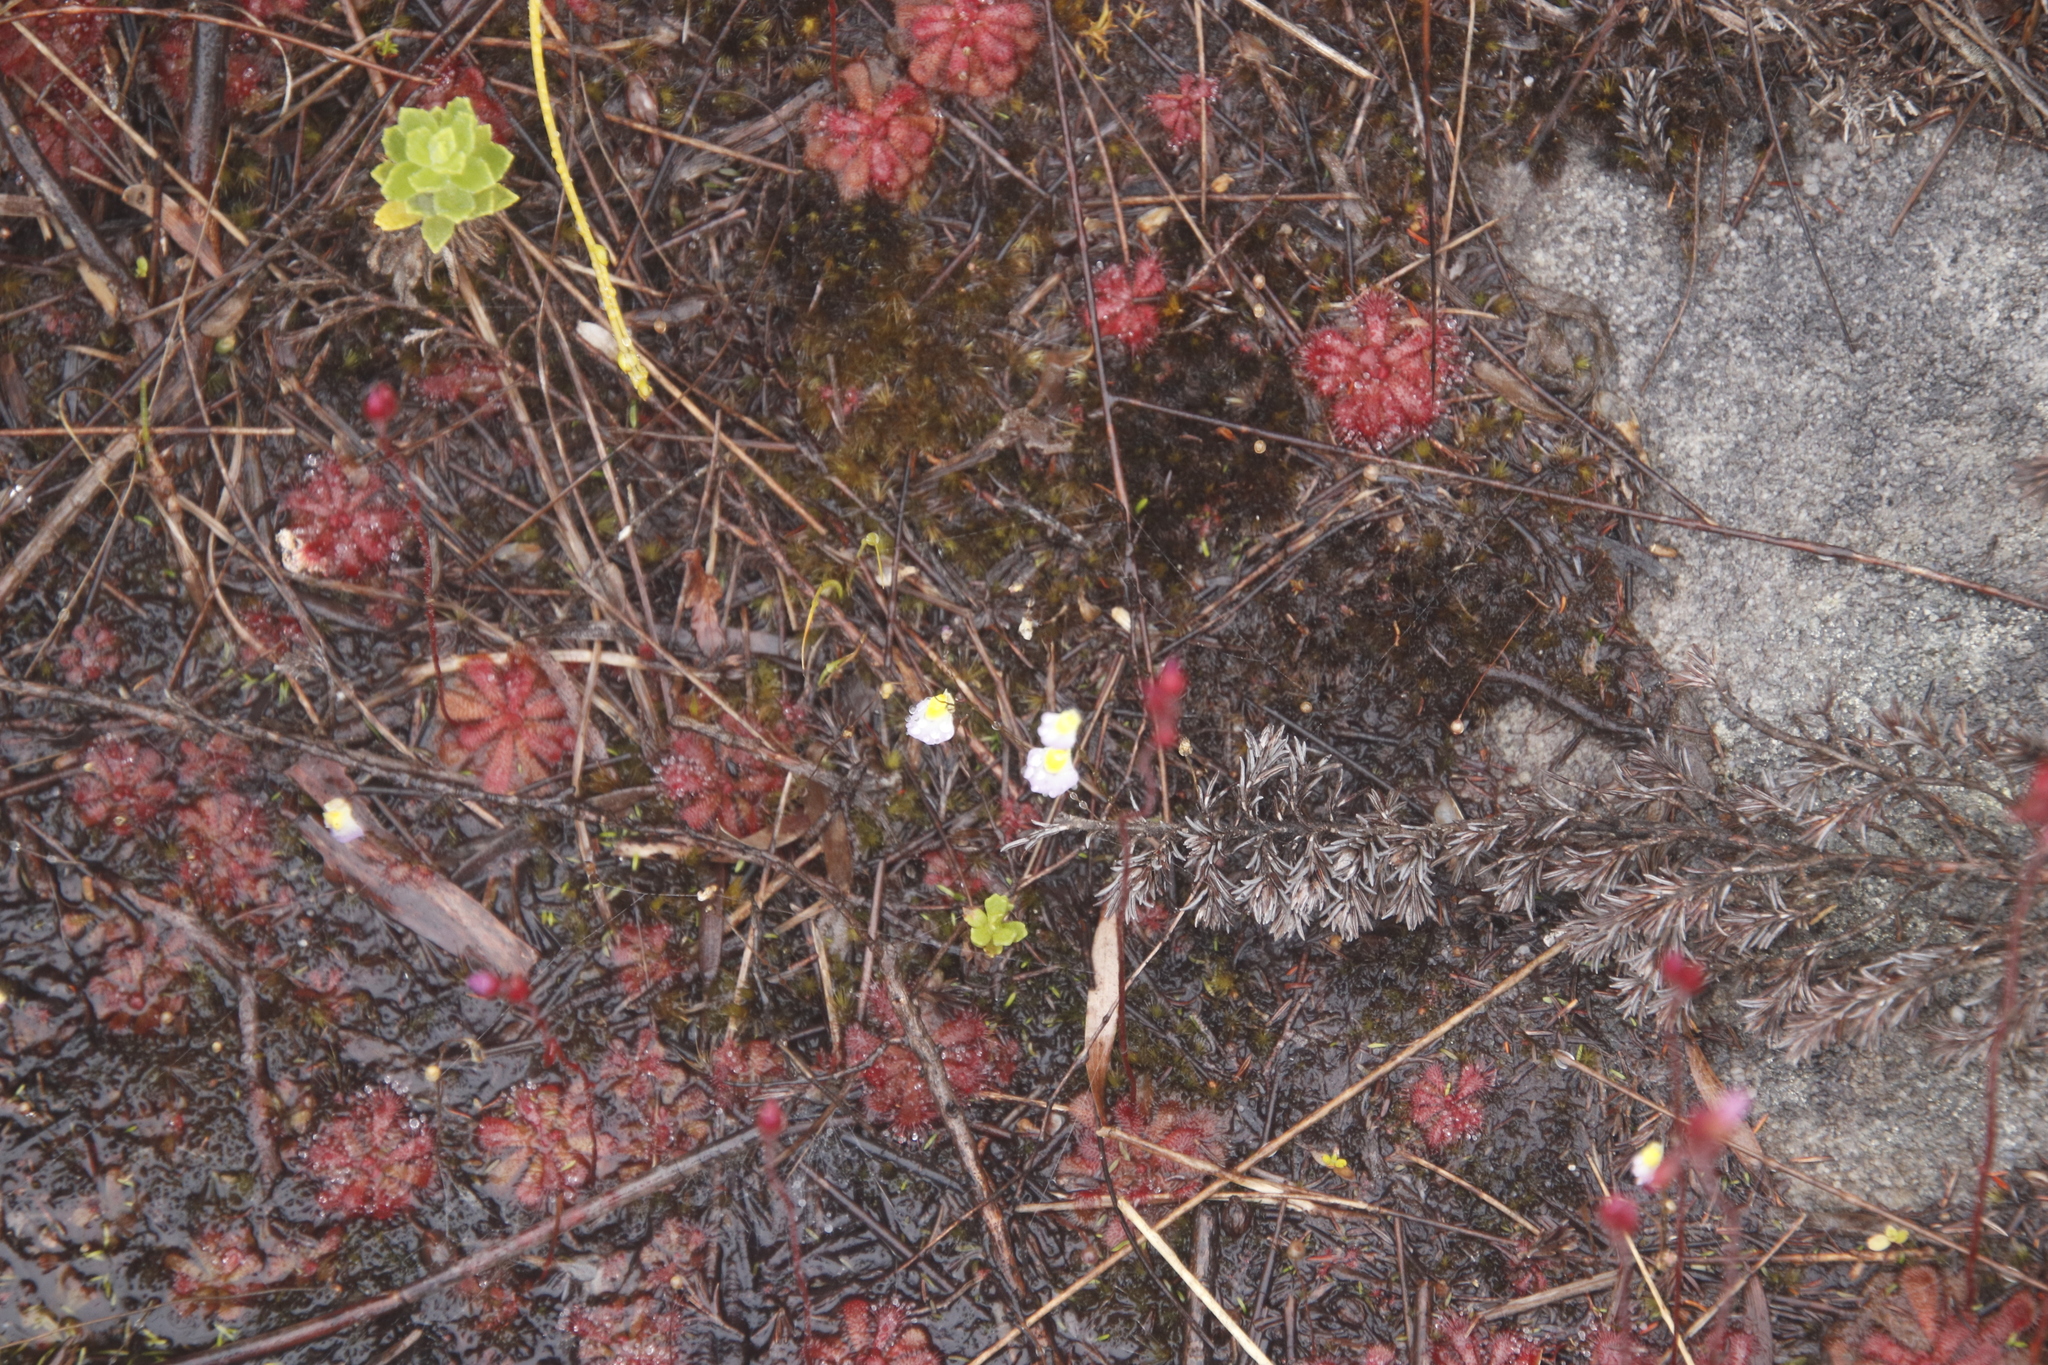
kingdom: Plantae
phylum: Tracheophyta
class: Magnoliopsida
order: Lamiales
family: Lentibulariaceae
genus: Utricularia
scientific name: Utricularia bisquamata
